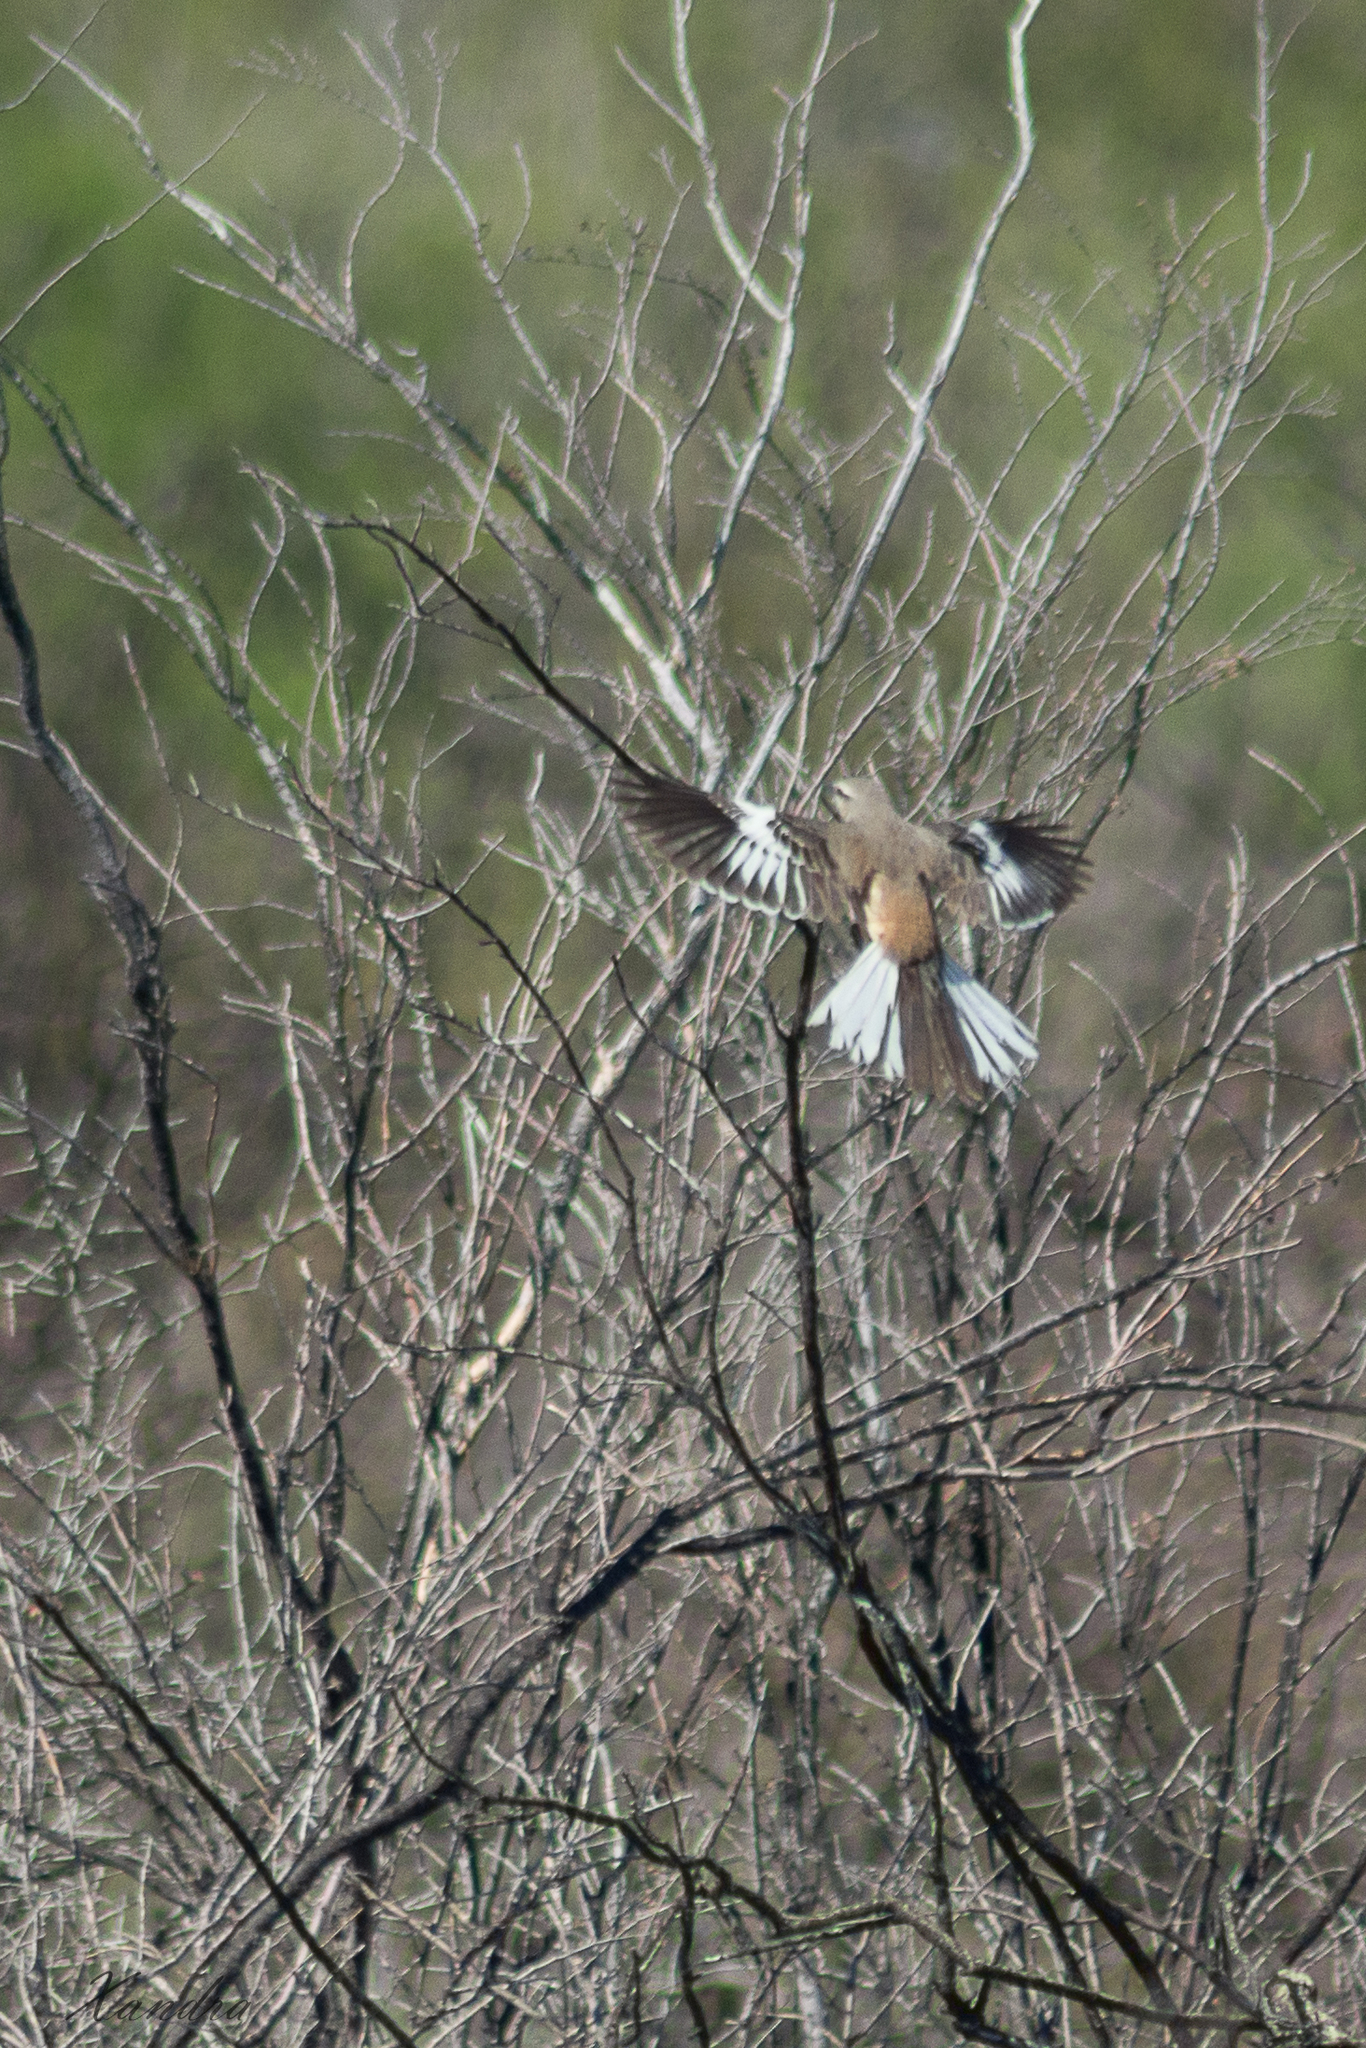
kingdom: Animalia
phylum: Chordata
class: Aves
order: Passeriformes
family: Mimidae
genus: Mimus
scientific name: Mimus triurus
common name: White-banded mockingbird
